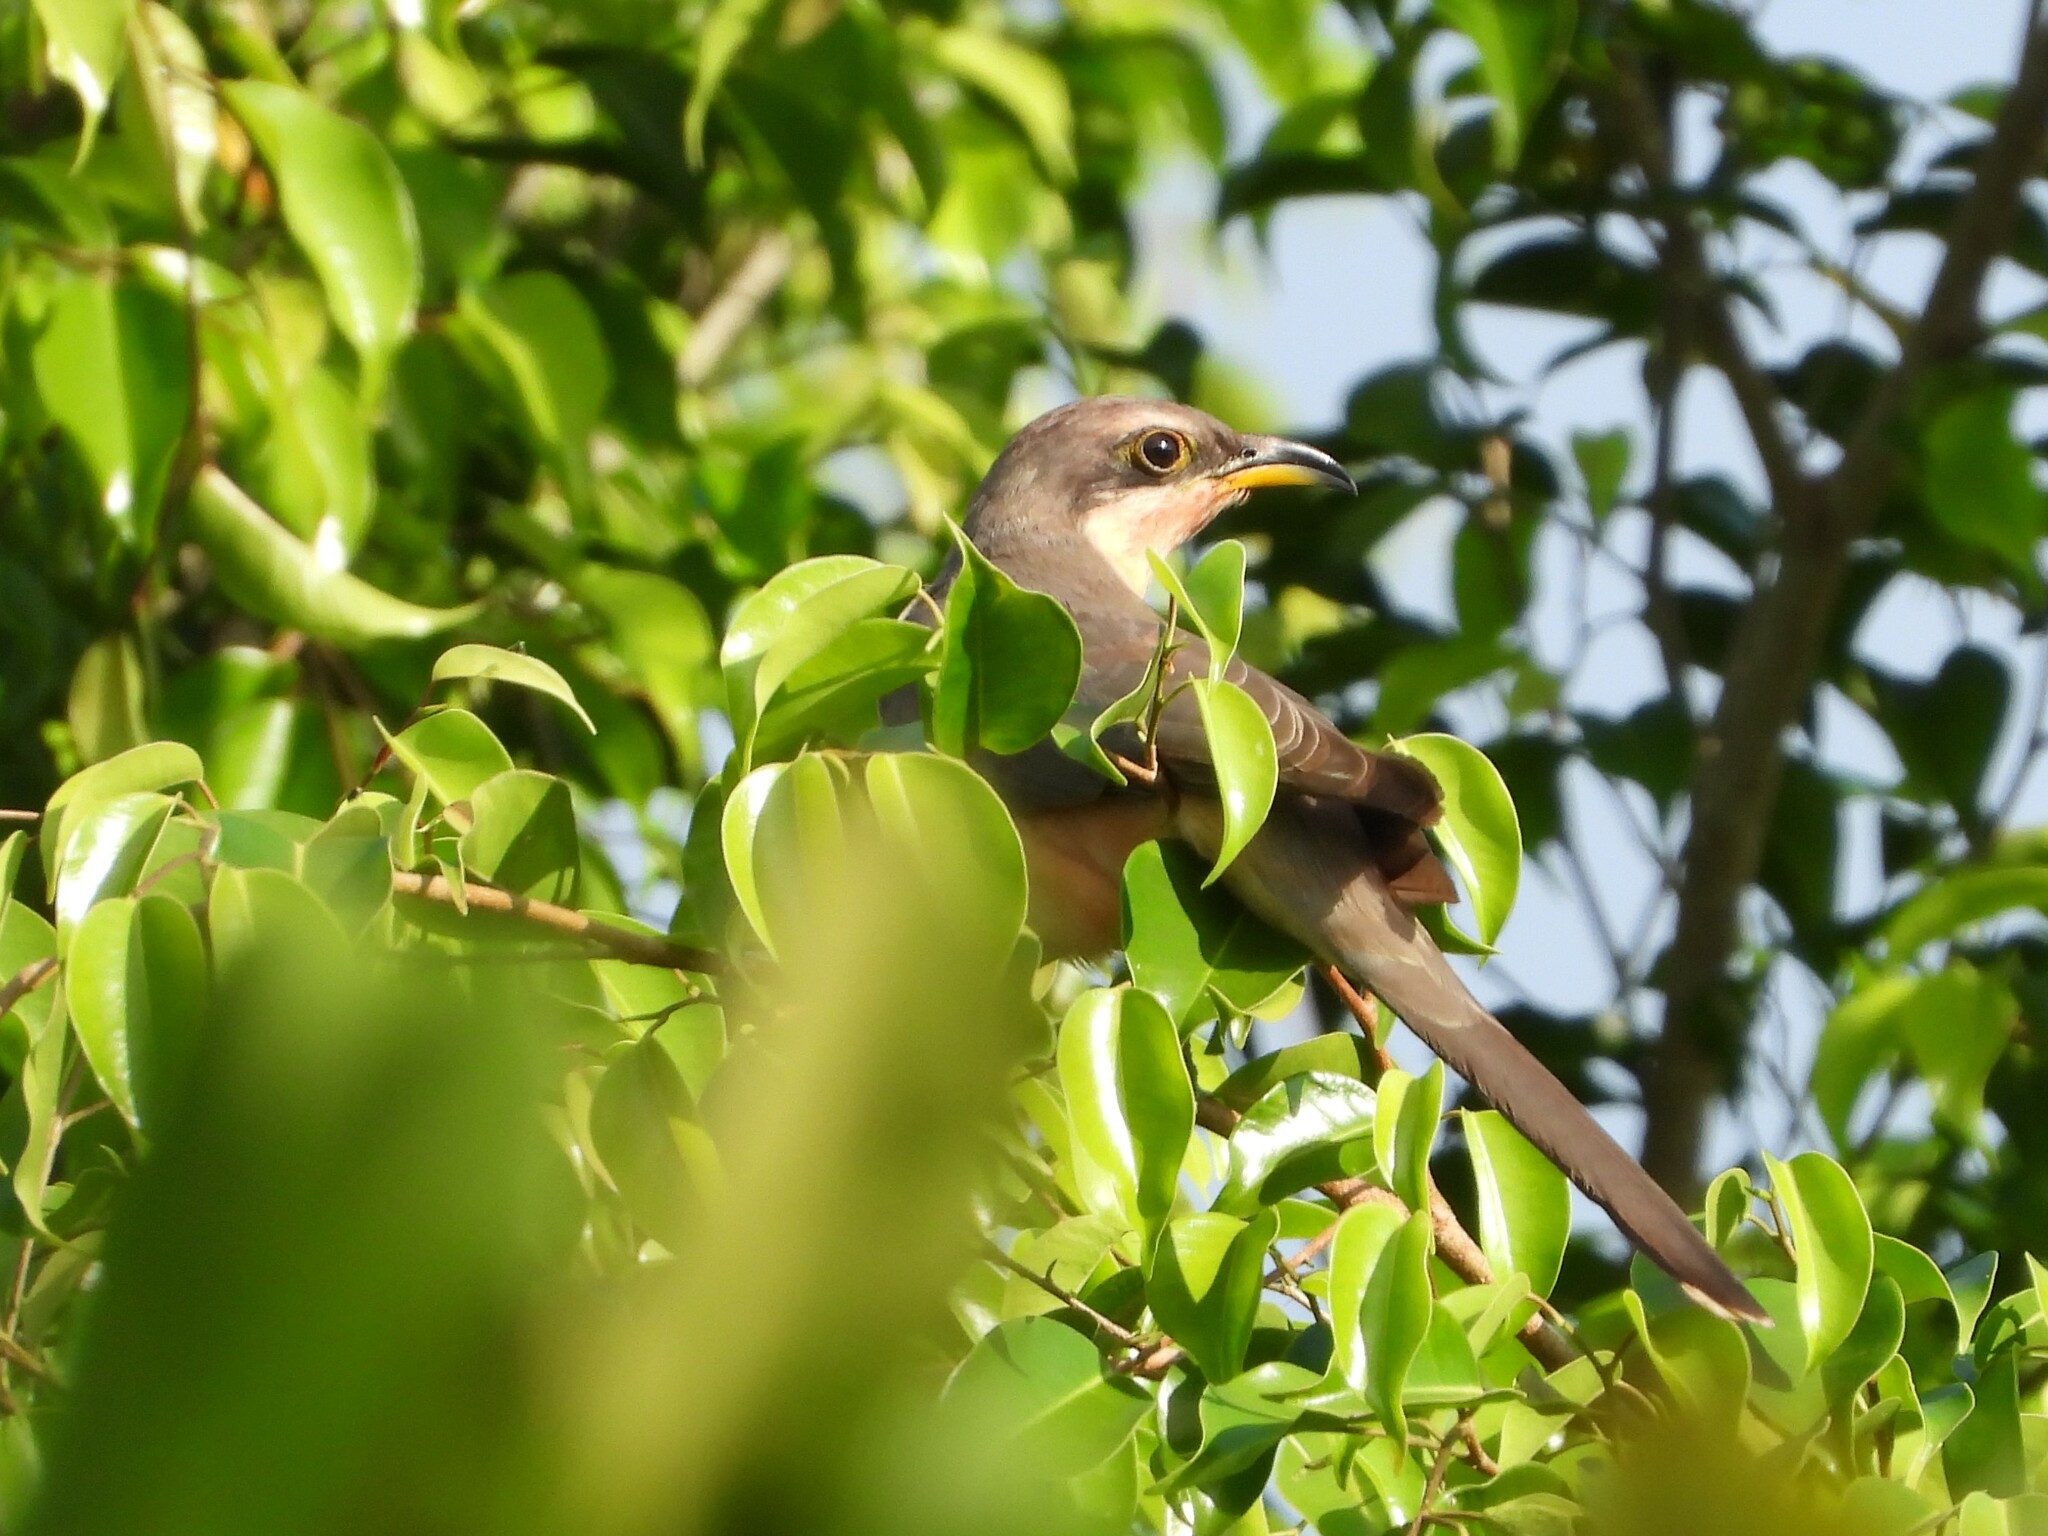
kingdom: Animalia
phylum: Chordata
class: Aves
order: Cuculiformes
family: Cuculidae
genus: Coccyzus
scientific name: Coccyzus minor
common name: Mangrove cuckoo
